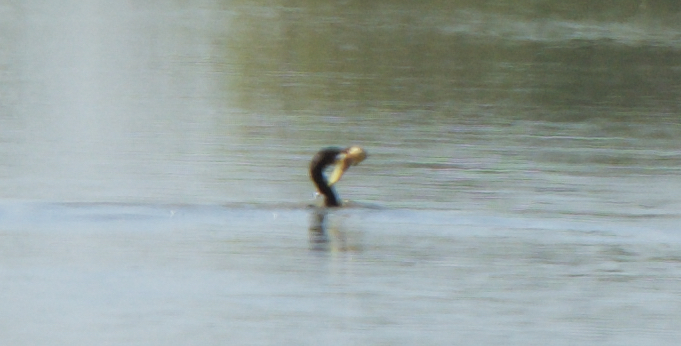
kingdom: Animalia
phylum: Chordata
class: Aves
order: Suliformes
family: Phalacrocoracidae
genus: Phalacrocorax
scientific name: Phalacrocorax auritus
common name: Double-crested cormorant
